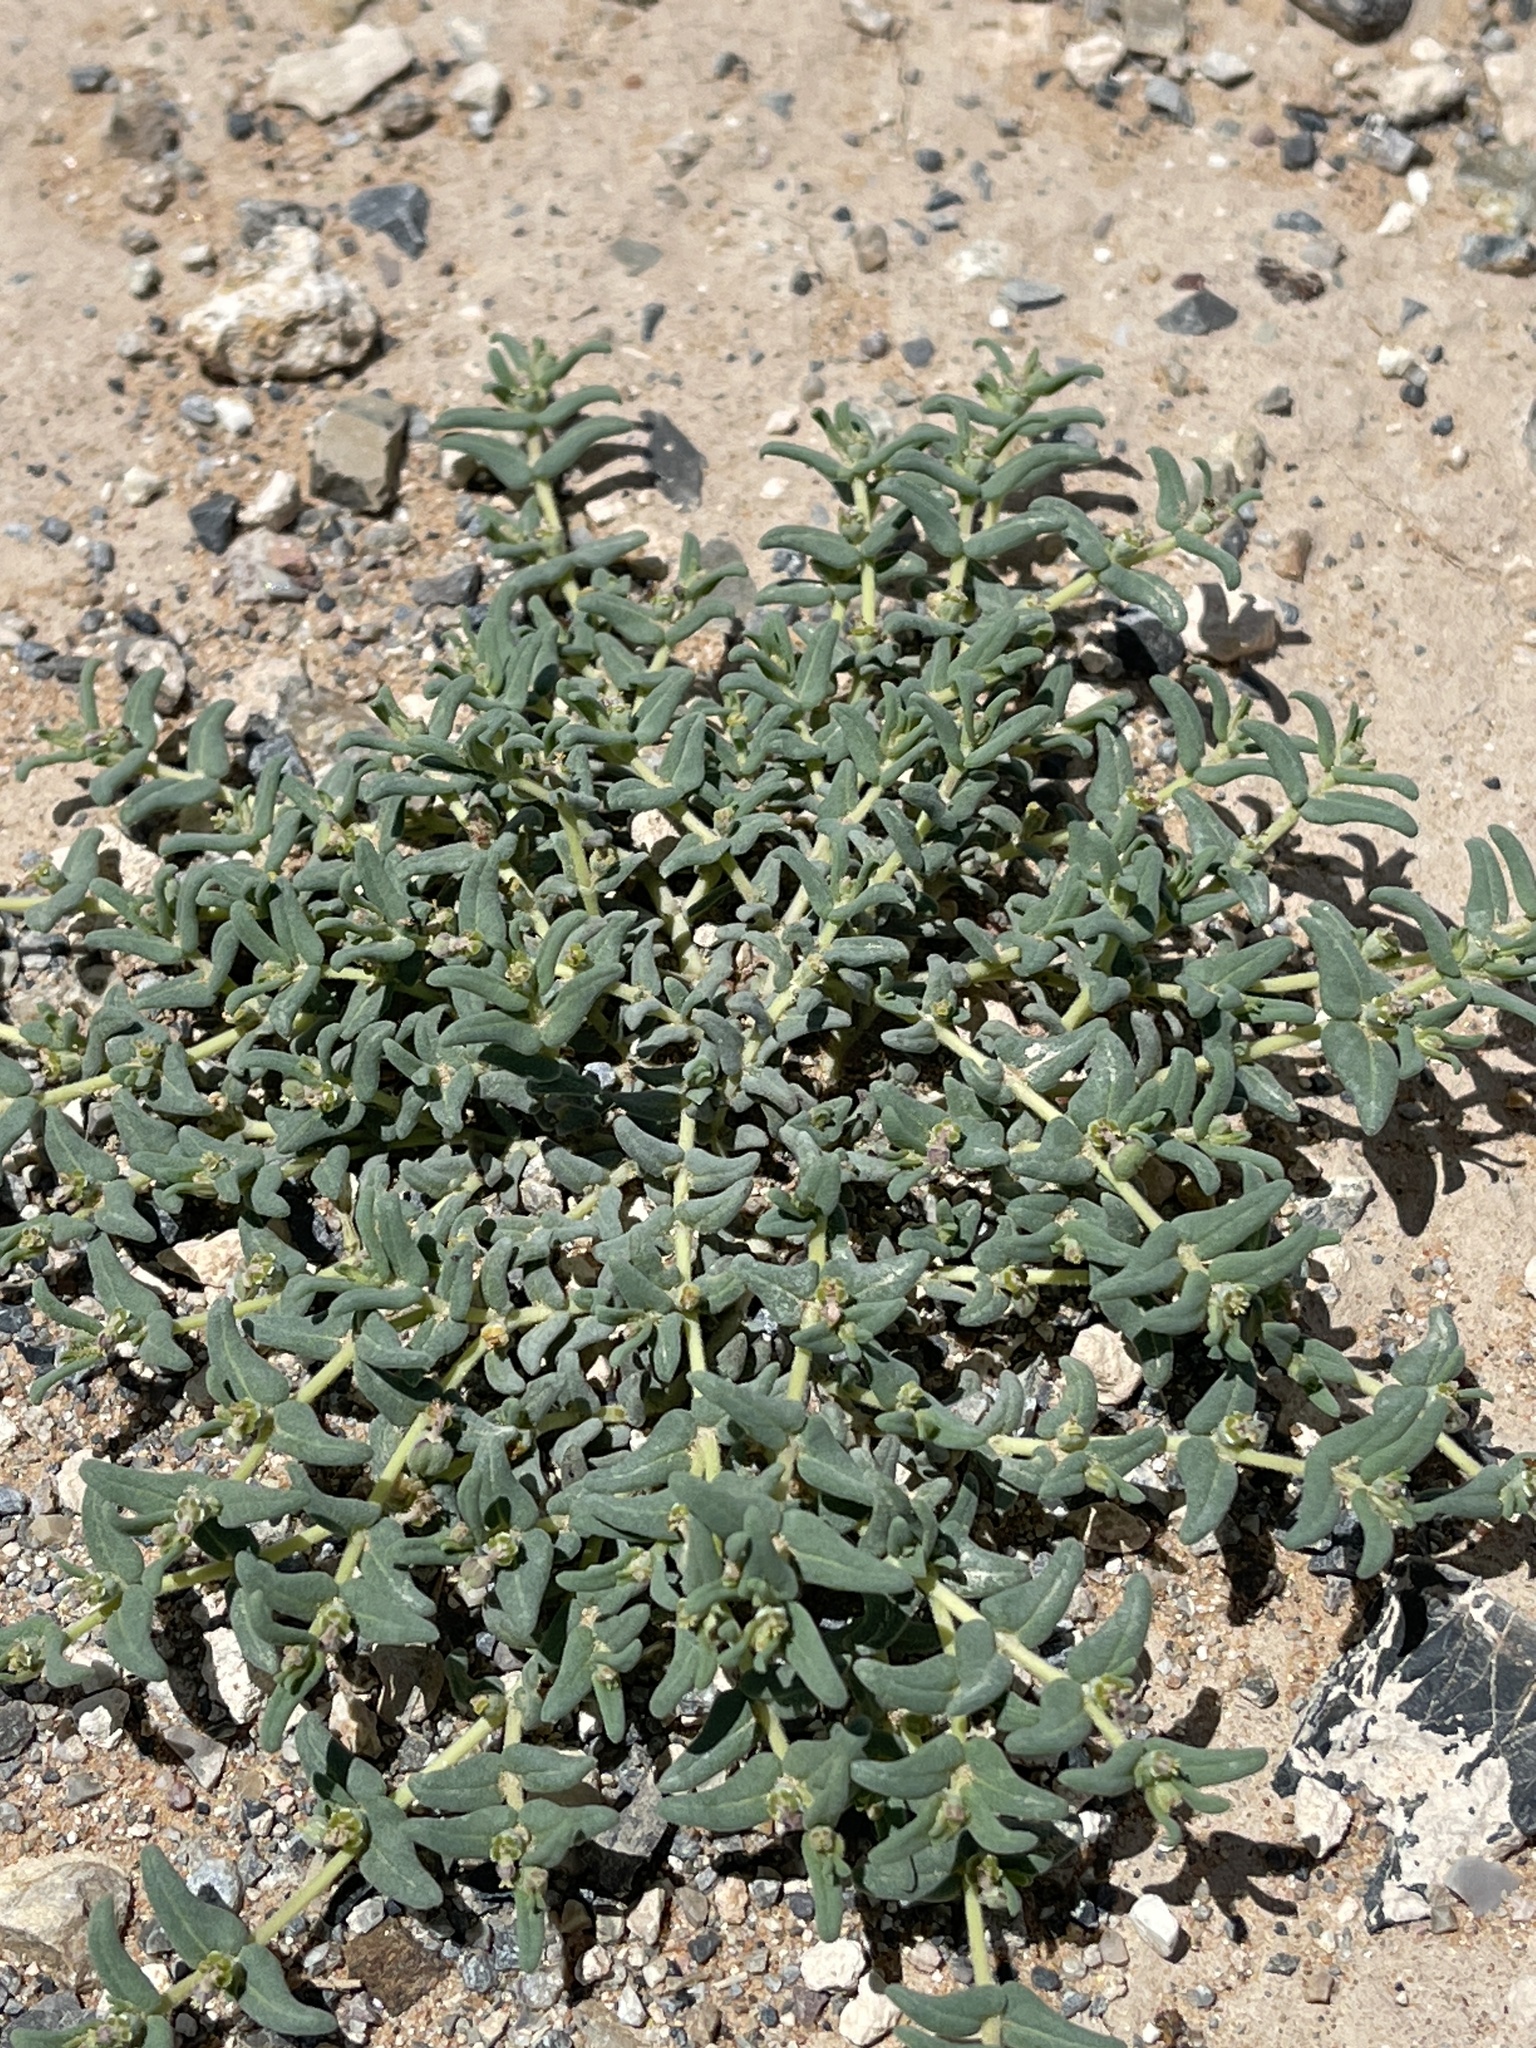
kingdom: Plantae
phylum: Tracheophyta
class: Magnoliopsida
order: Malpighiales
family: Euphorbiaceae
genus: Euphorbia
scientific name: Euphorbia lata
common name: Hoary euphorbia
